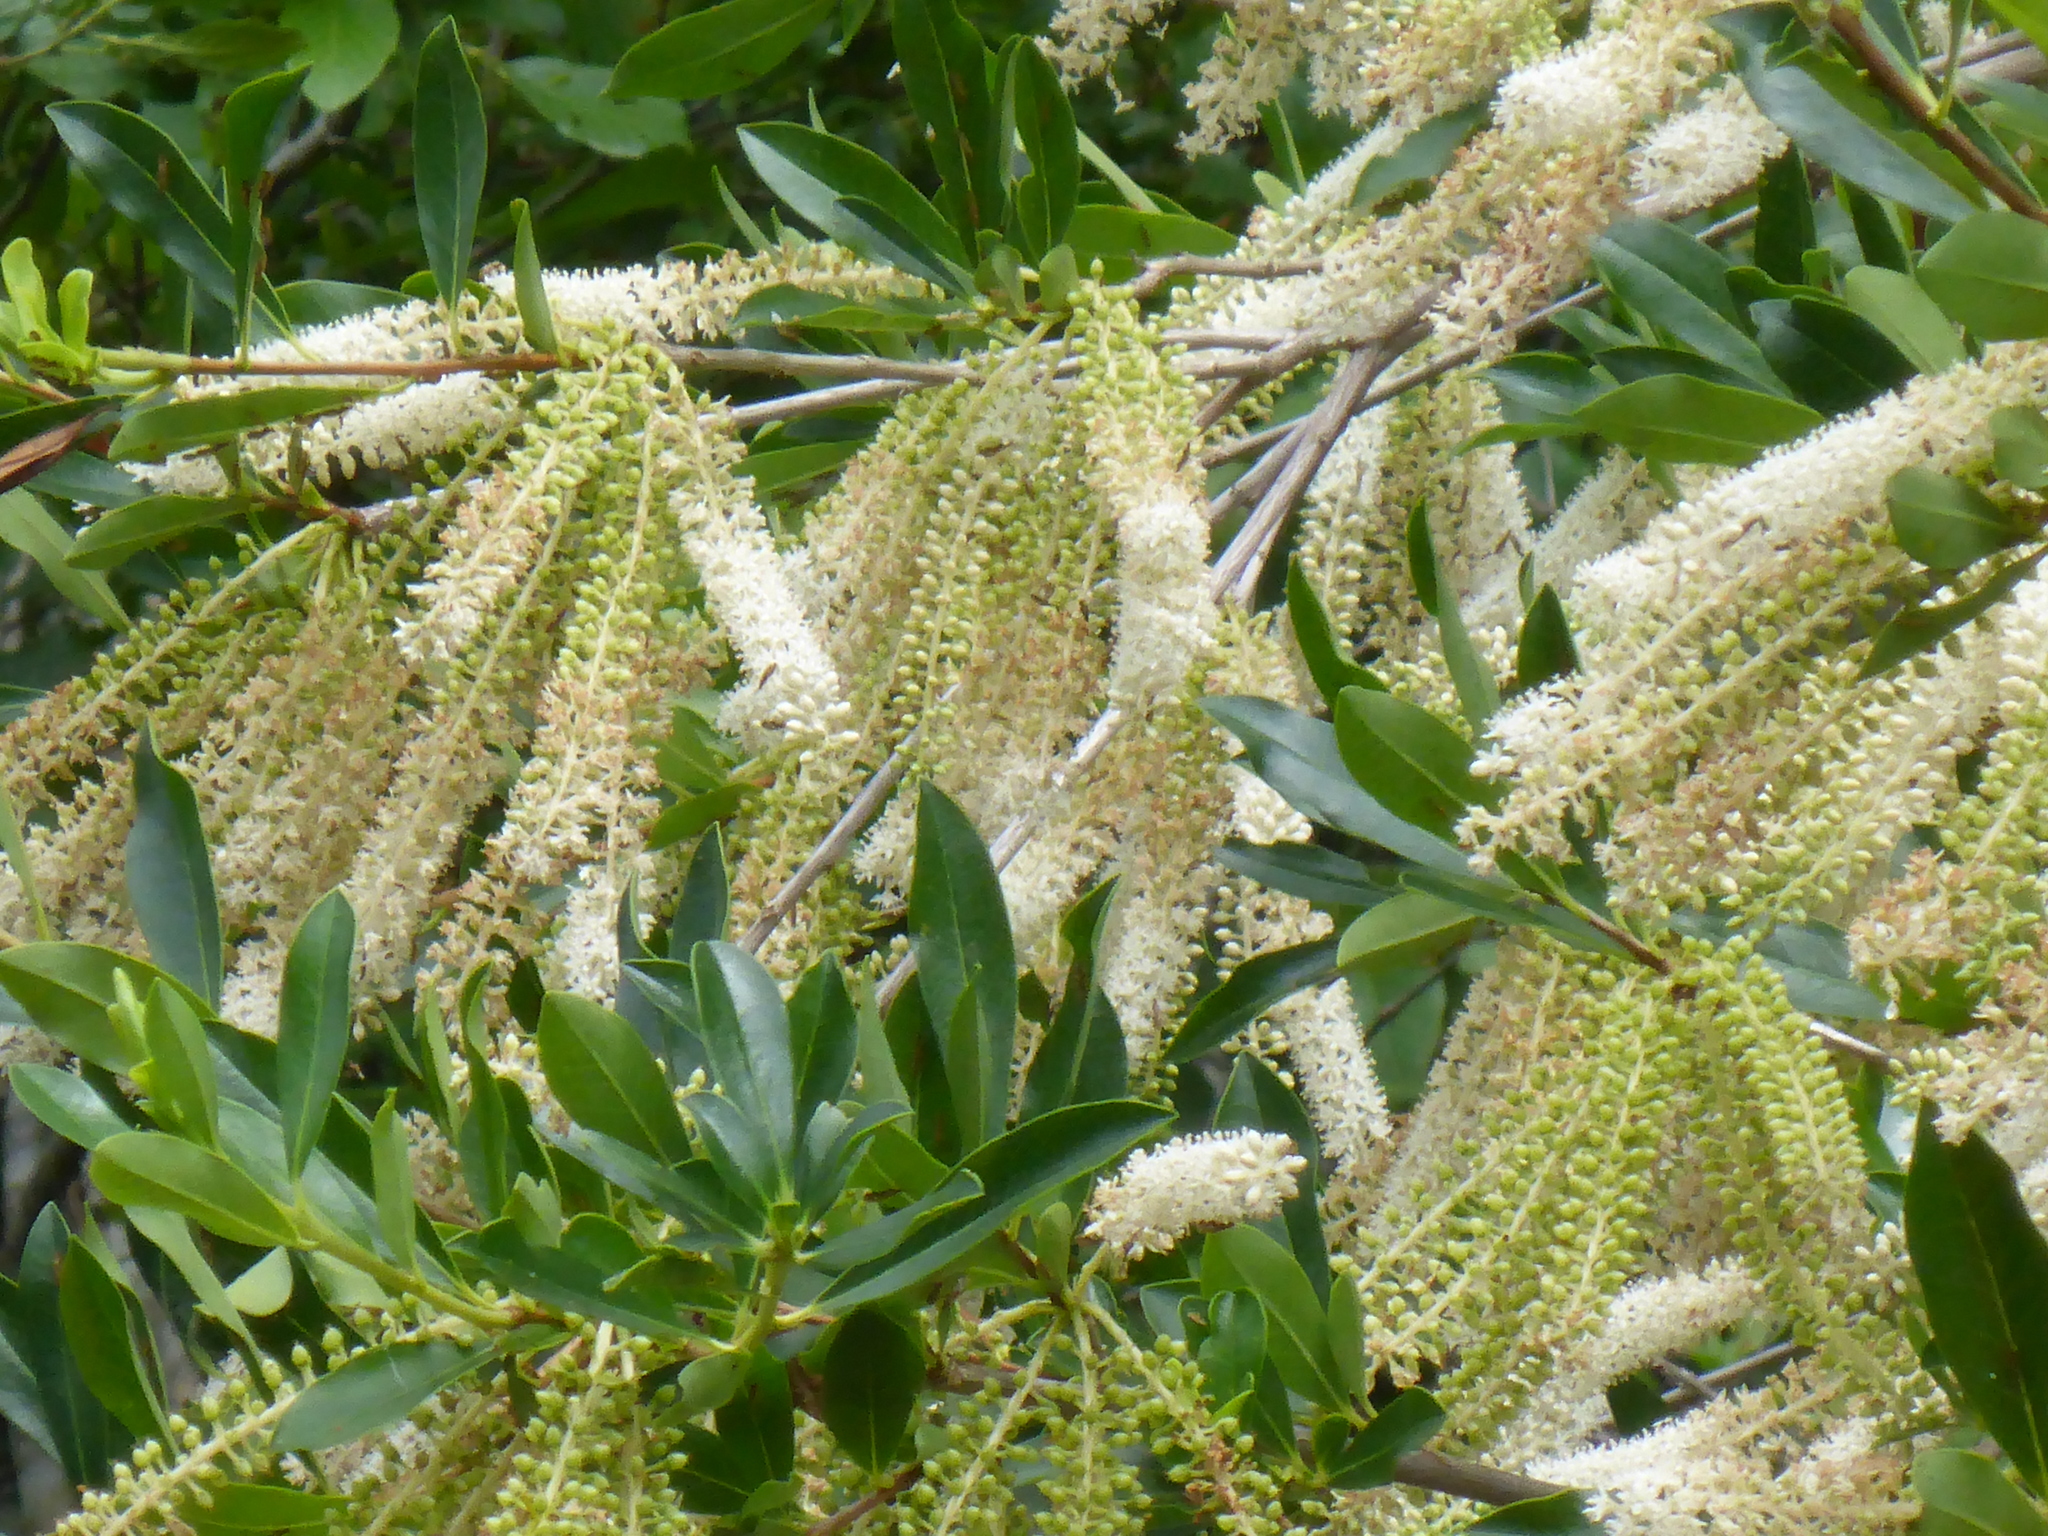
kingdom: Plantae
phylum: Tracheophyta
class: Magnoliopsida
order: Ericales
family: Cyrillaceae
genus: Cyrilla
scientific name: Cyrilla racemiflora
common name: Black titi
